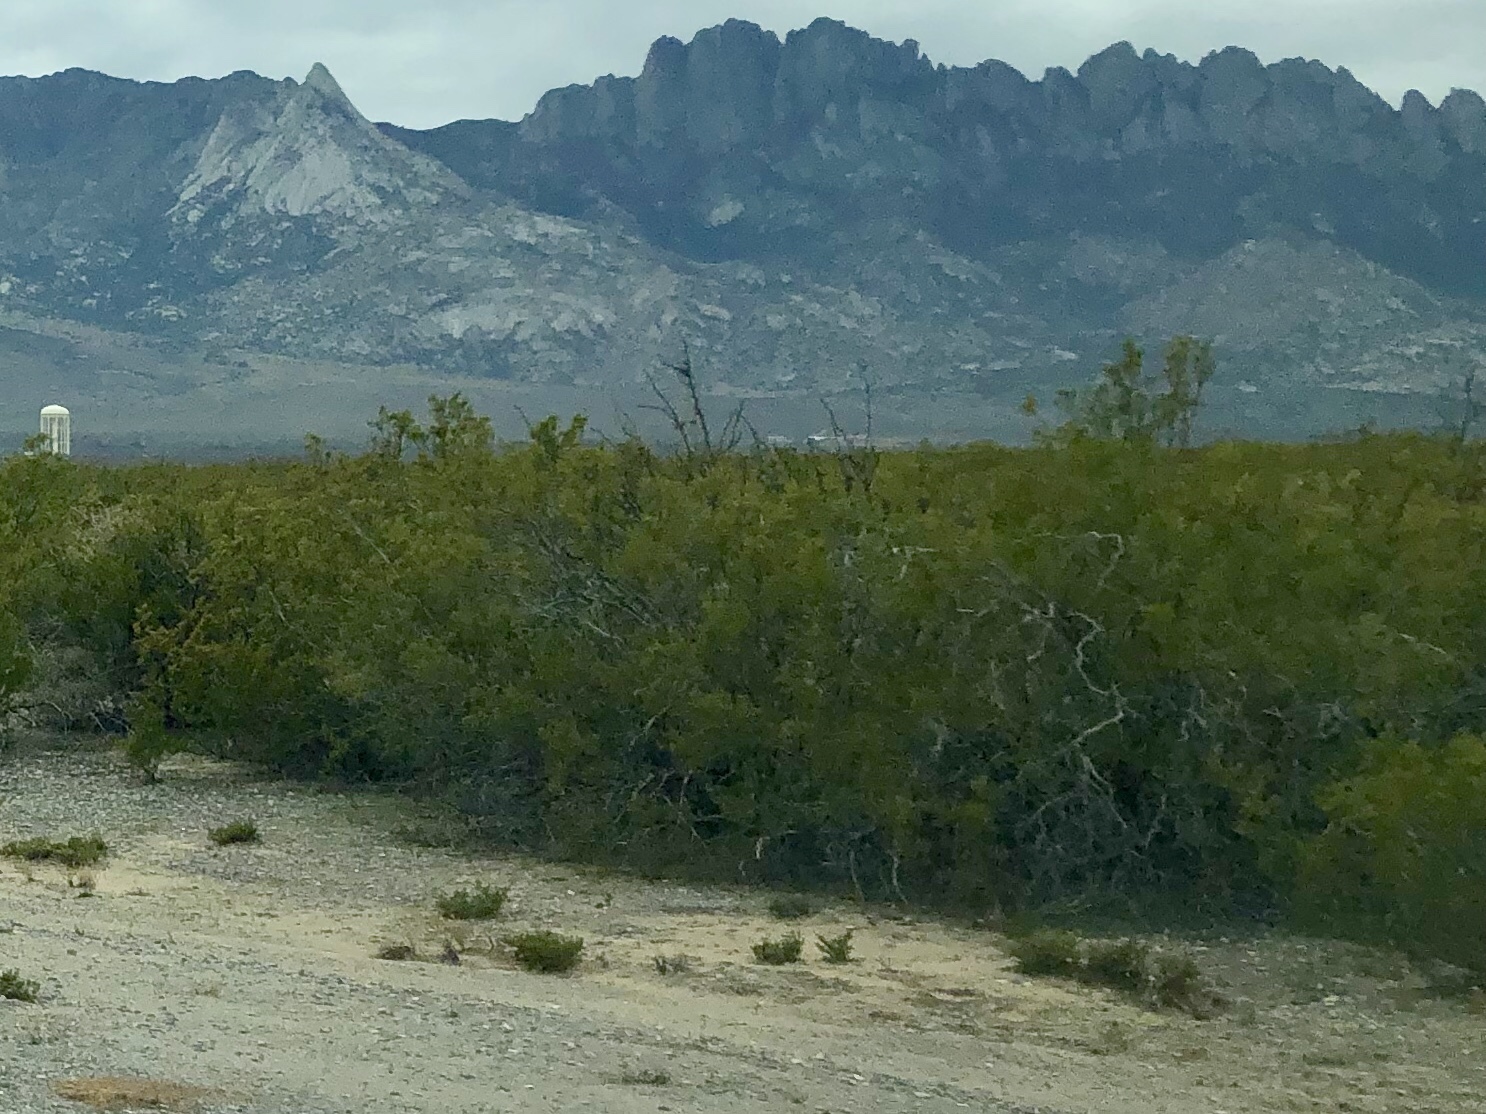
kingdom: Plantae
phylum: Tracheophyta
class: Magnoliopsida
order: Zygophyllales
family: Zygophyllaceae
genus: Larrea
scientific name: Larrea tridentata
